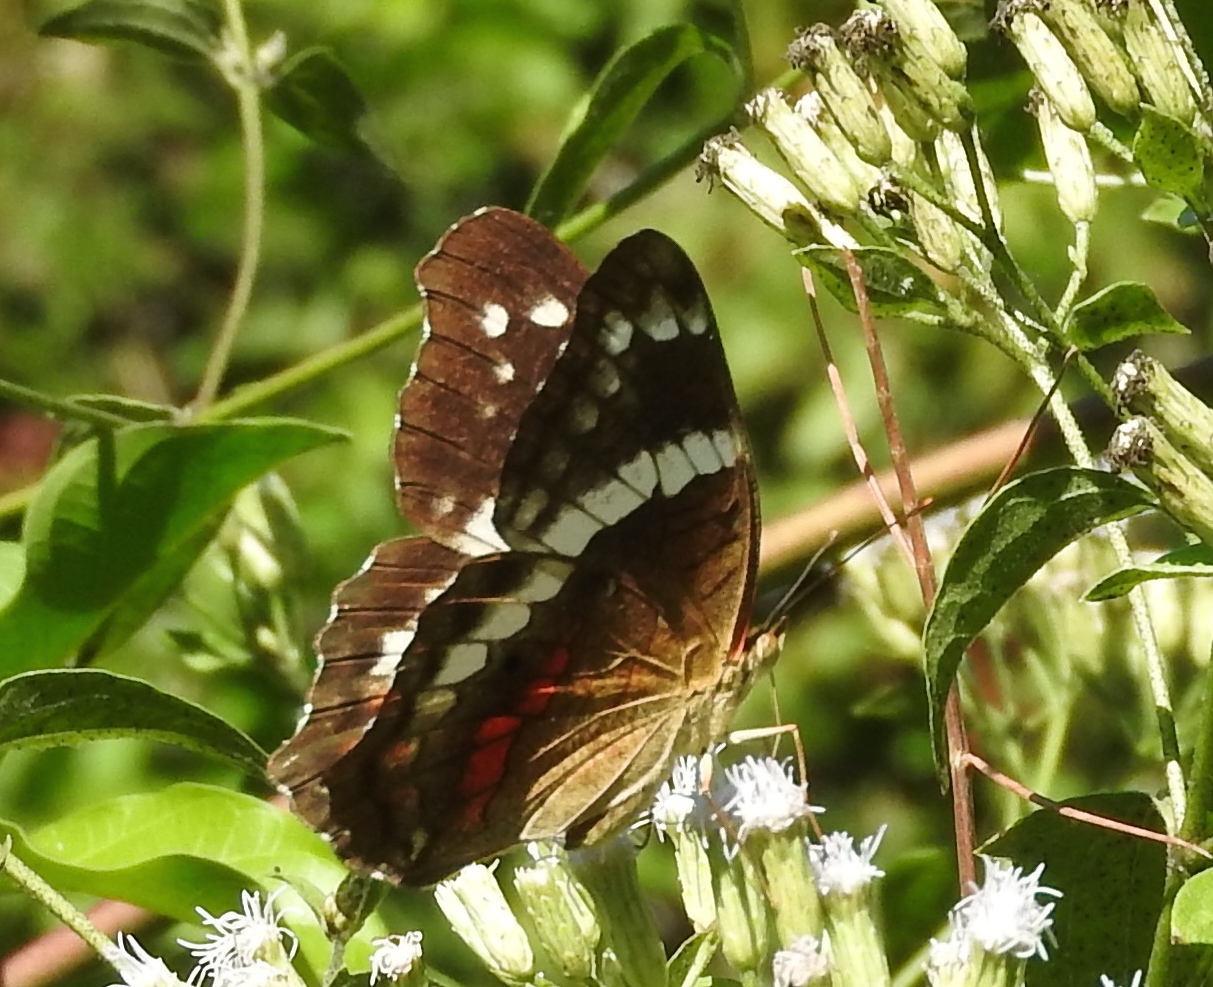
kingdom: Animalia
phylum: Arthropoda
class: Insecta
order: Lepidoptera
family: Nymphalidae
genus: Anartia
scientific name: Anartia fatima
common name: Banded peacock
